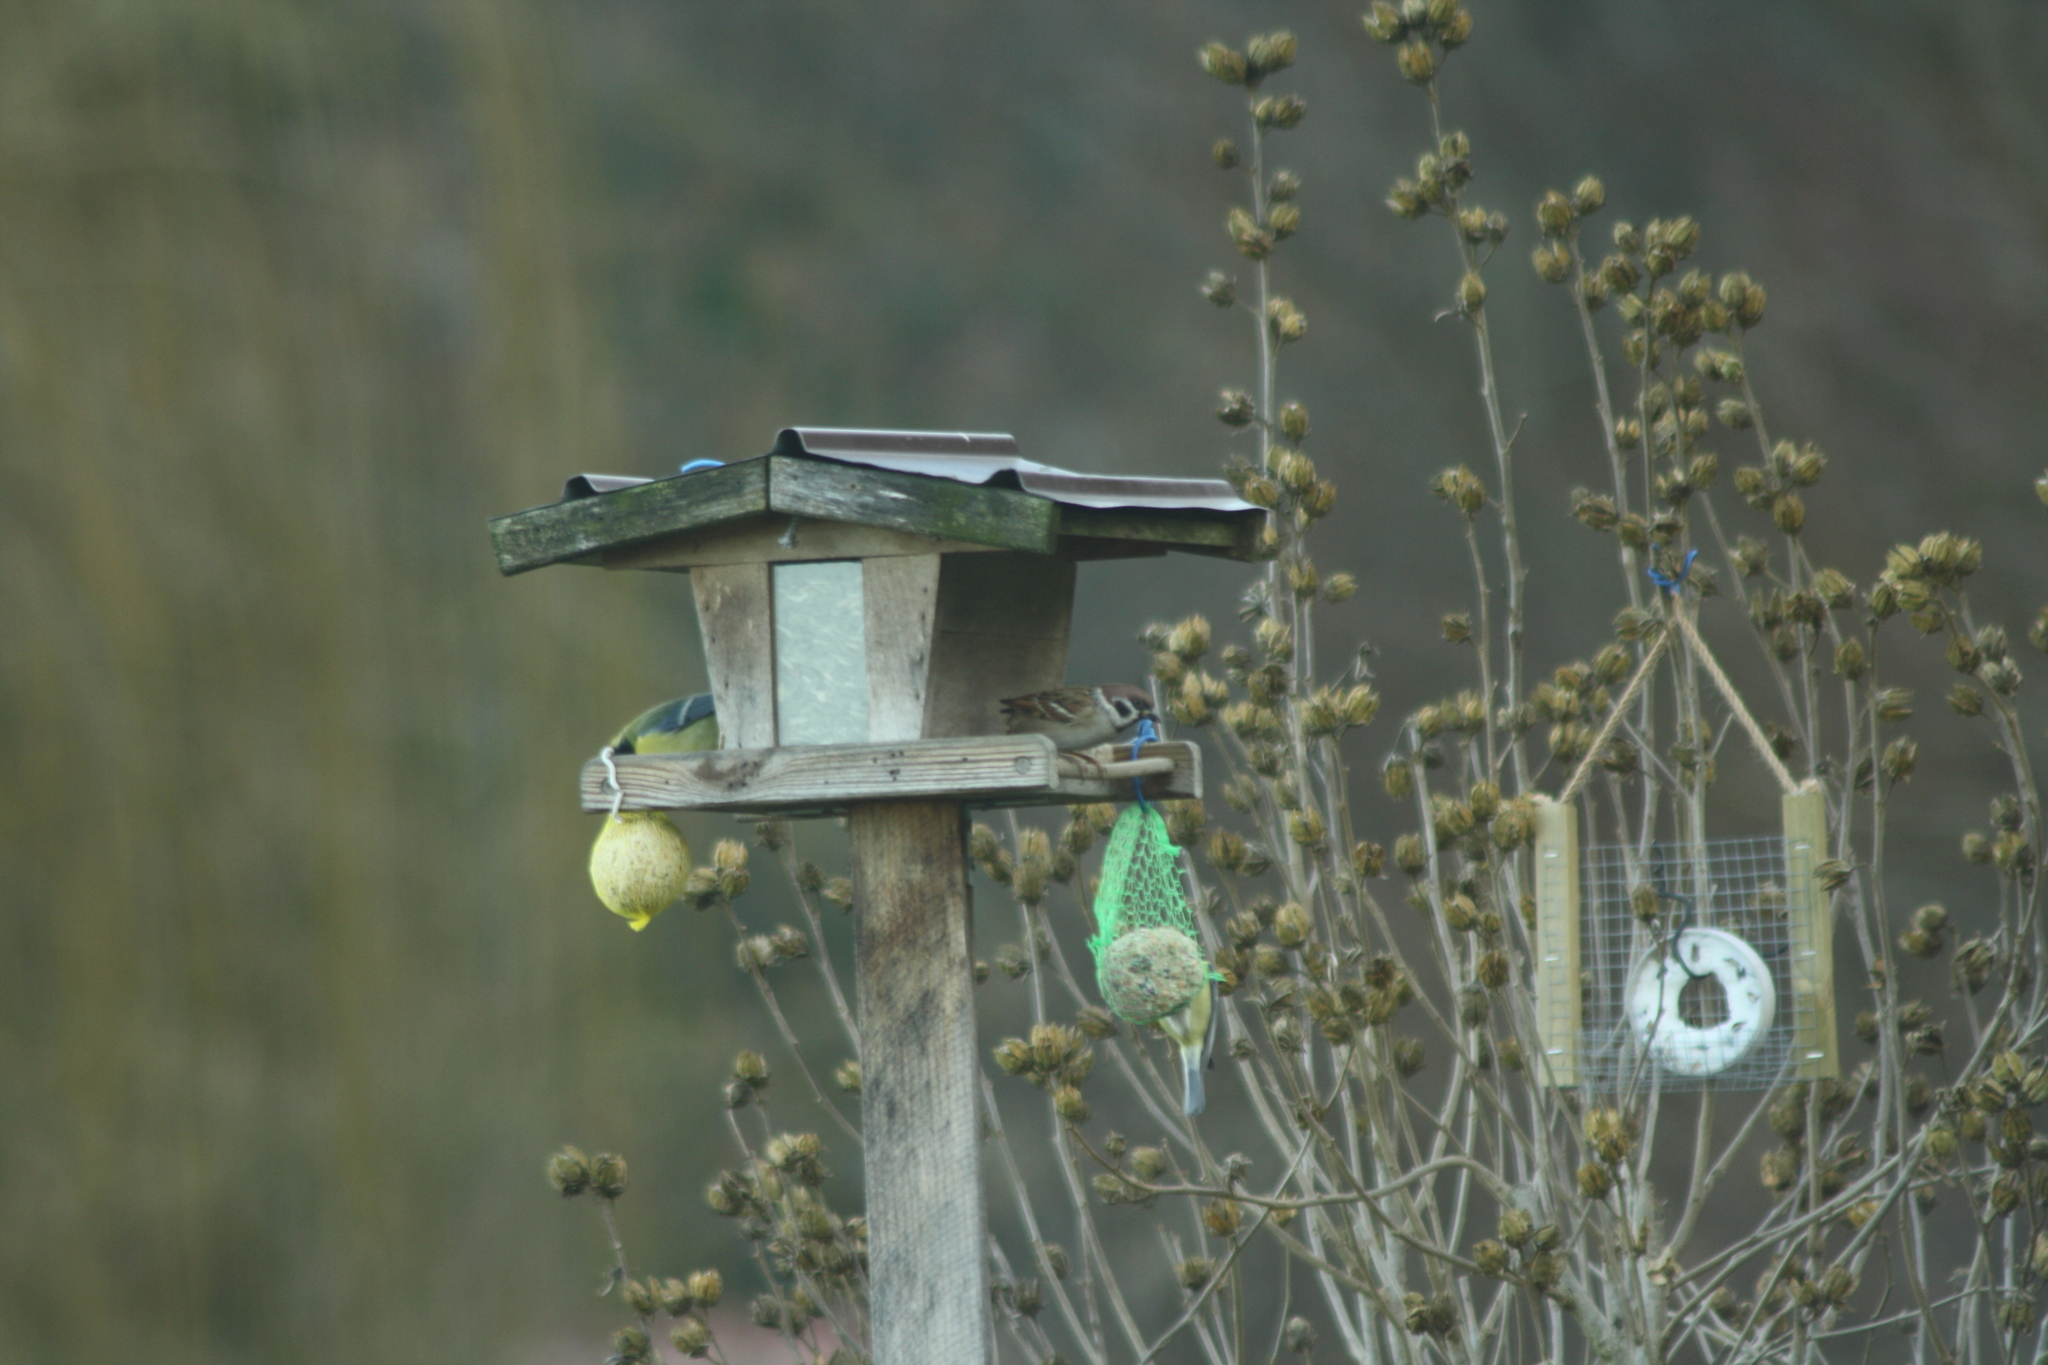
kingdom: Animalia
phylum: Chordata
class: Aves
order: Passeriformes
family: Passeridae
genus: Passer
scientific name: Passer montanus
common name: Eurasian tree sparrow
